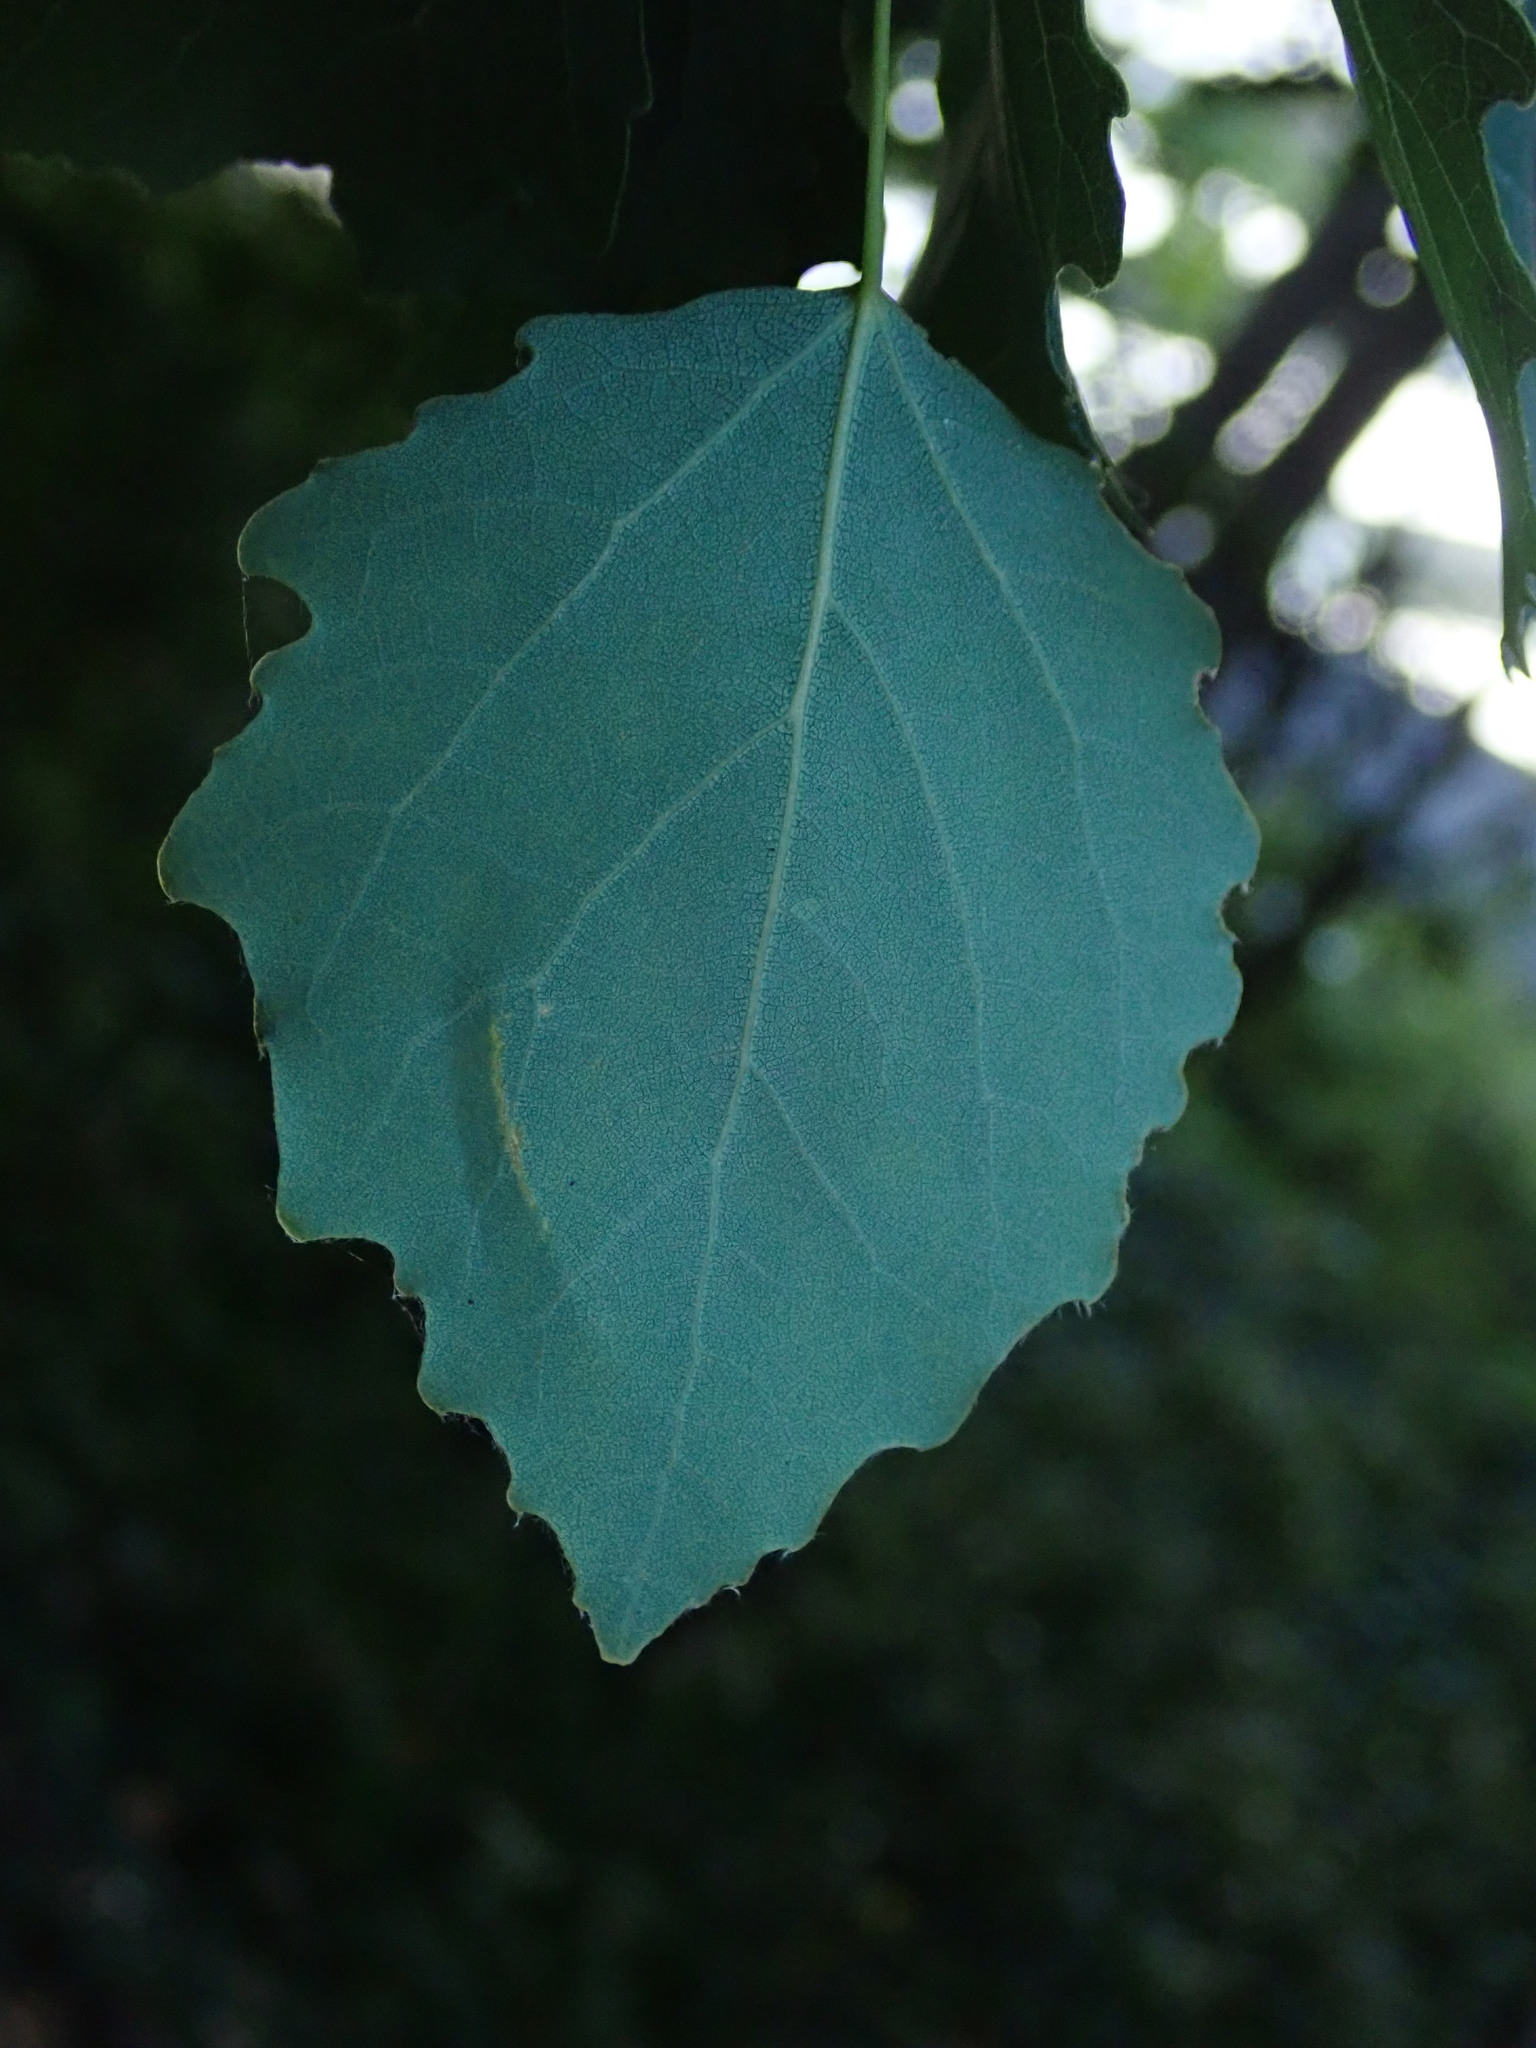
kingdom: Plantae
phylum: Tracheophyta
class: Magnoliopsida
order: Malpighiales
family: Salicaceae
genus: Populus
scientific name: Populus tremula
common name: European aspen
